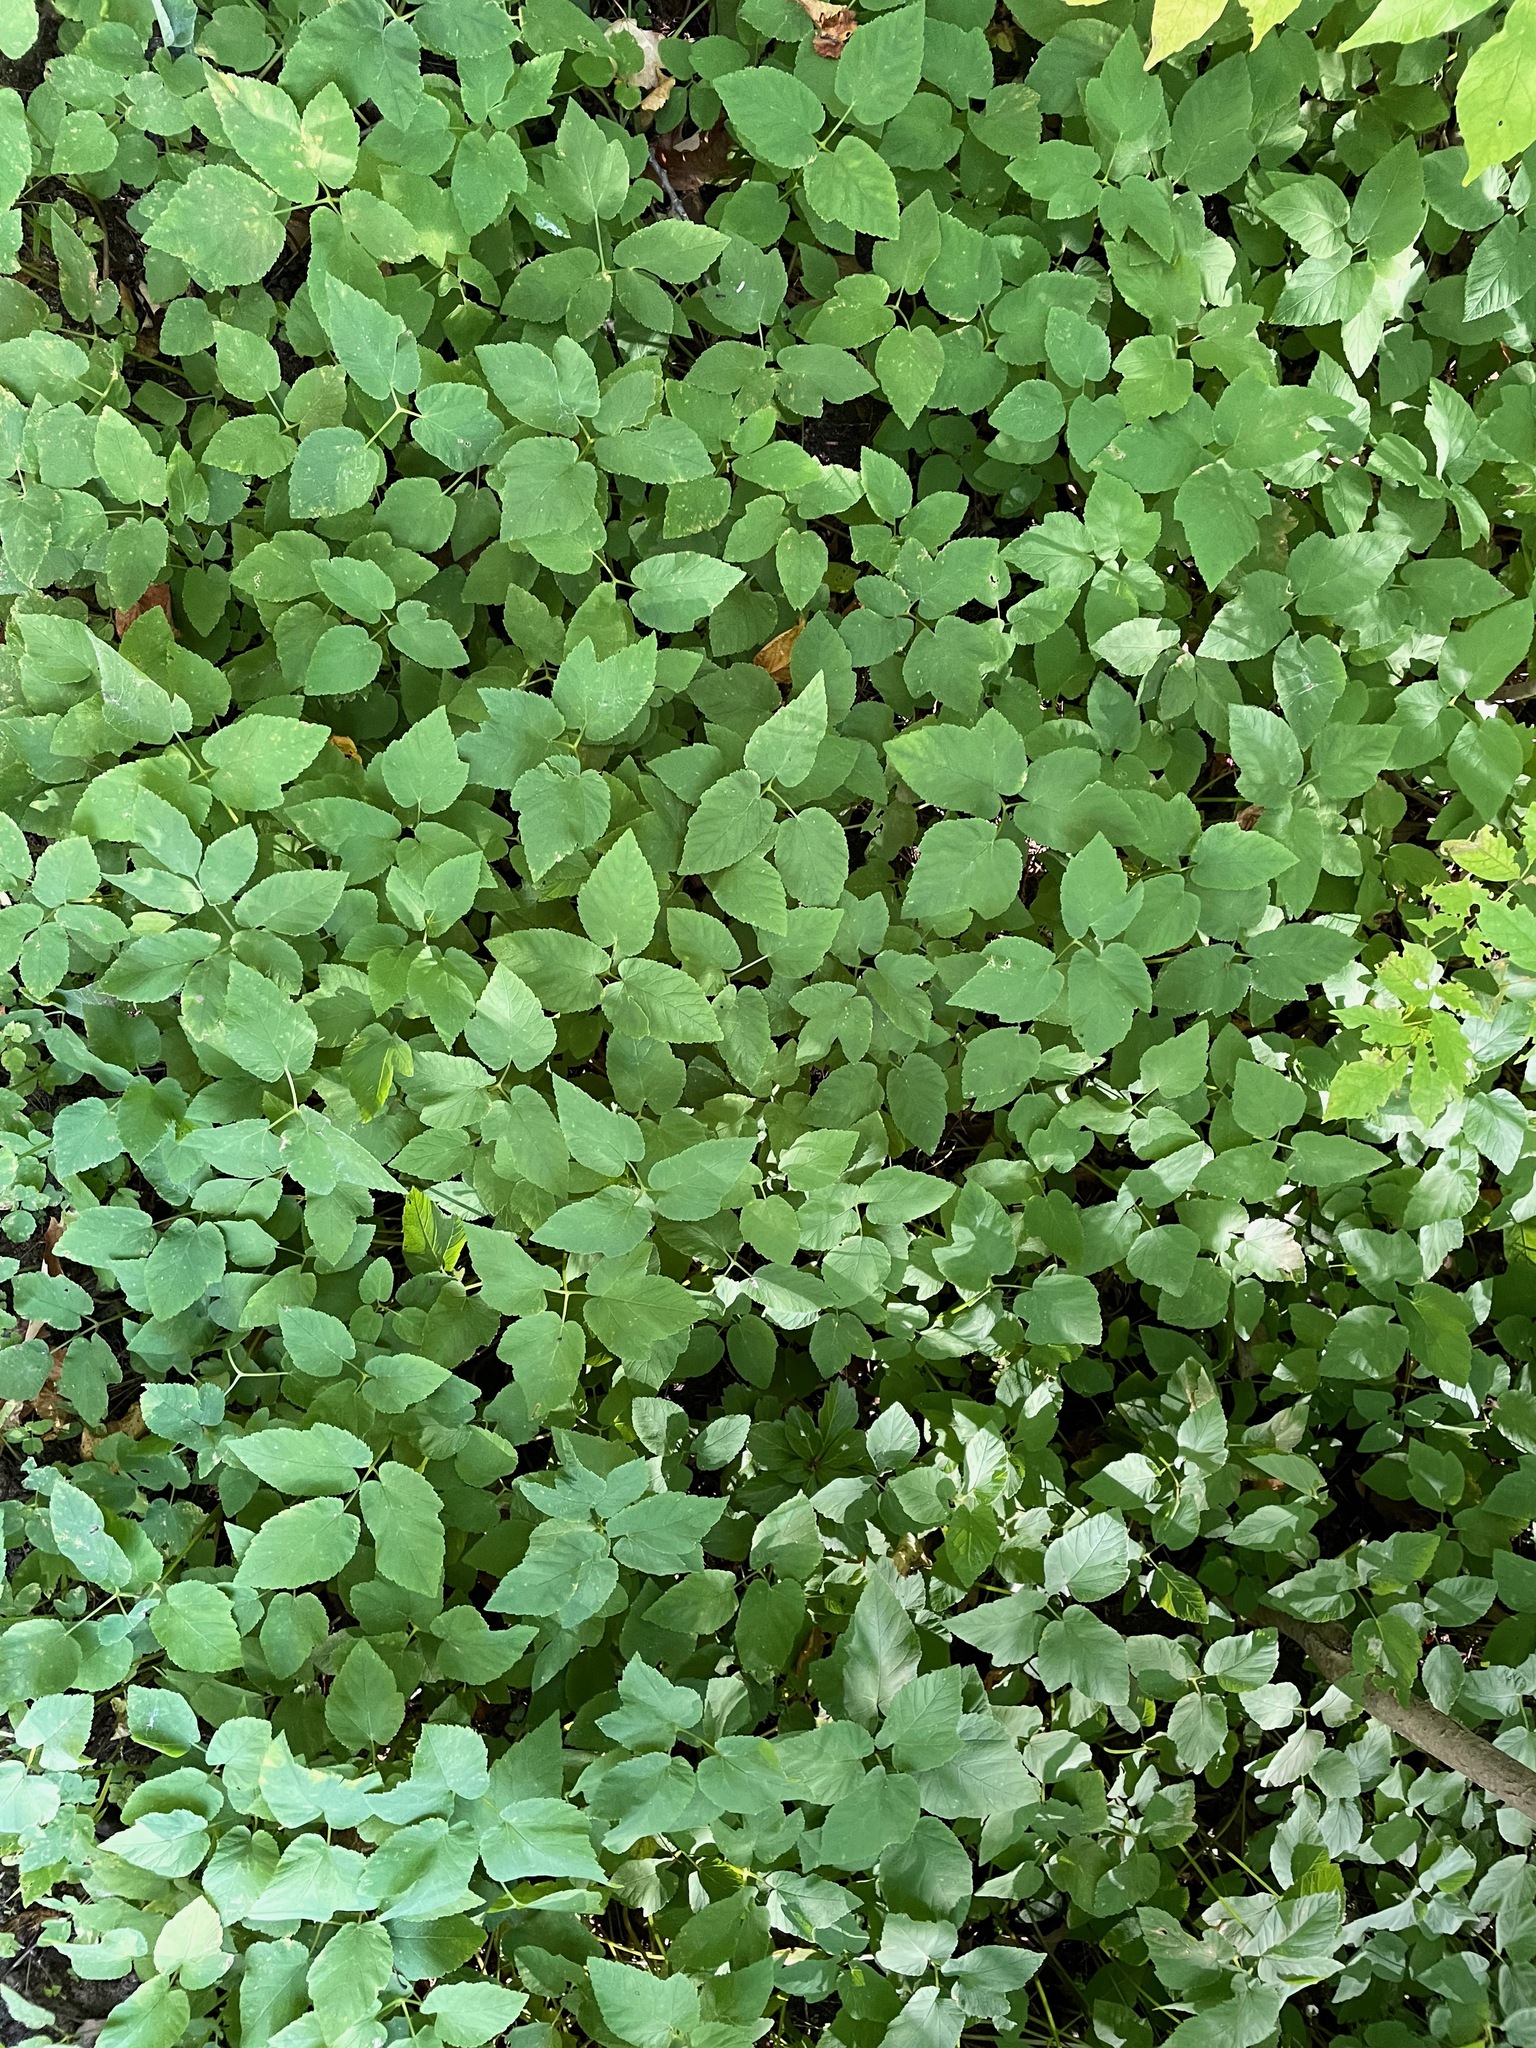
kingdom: Plantae
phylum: Tracheophyta
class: Magnoliopsida
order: Apiales
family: Apiaceae
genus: Aegopodium
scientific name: Aegopodium podagraria
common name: Ground-elder
